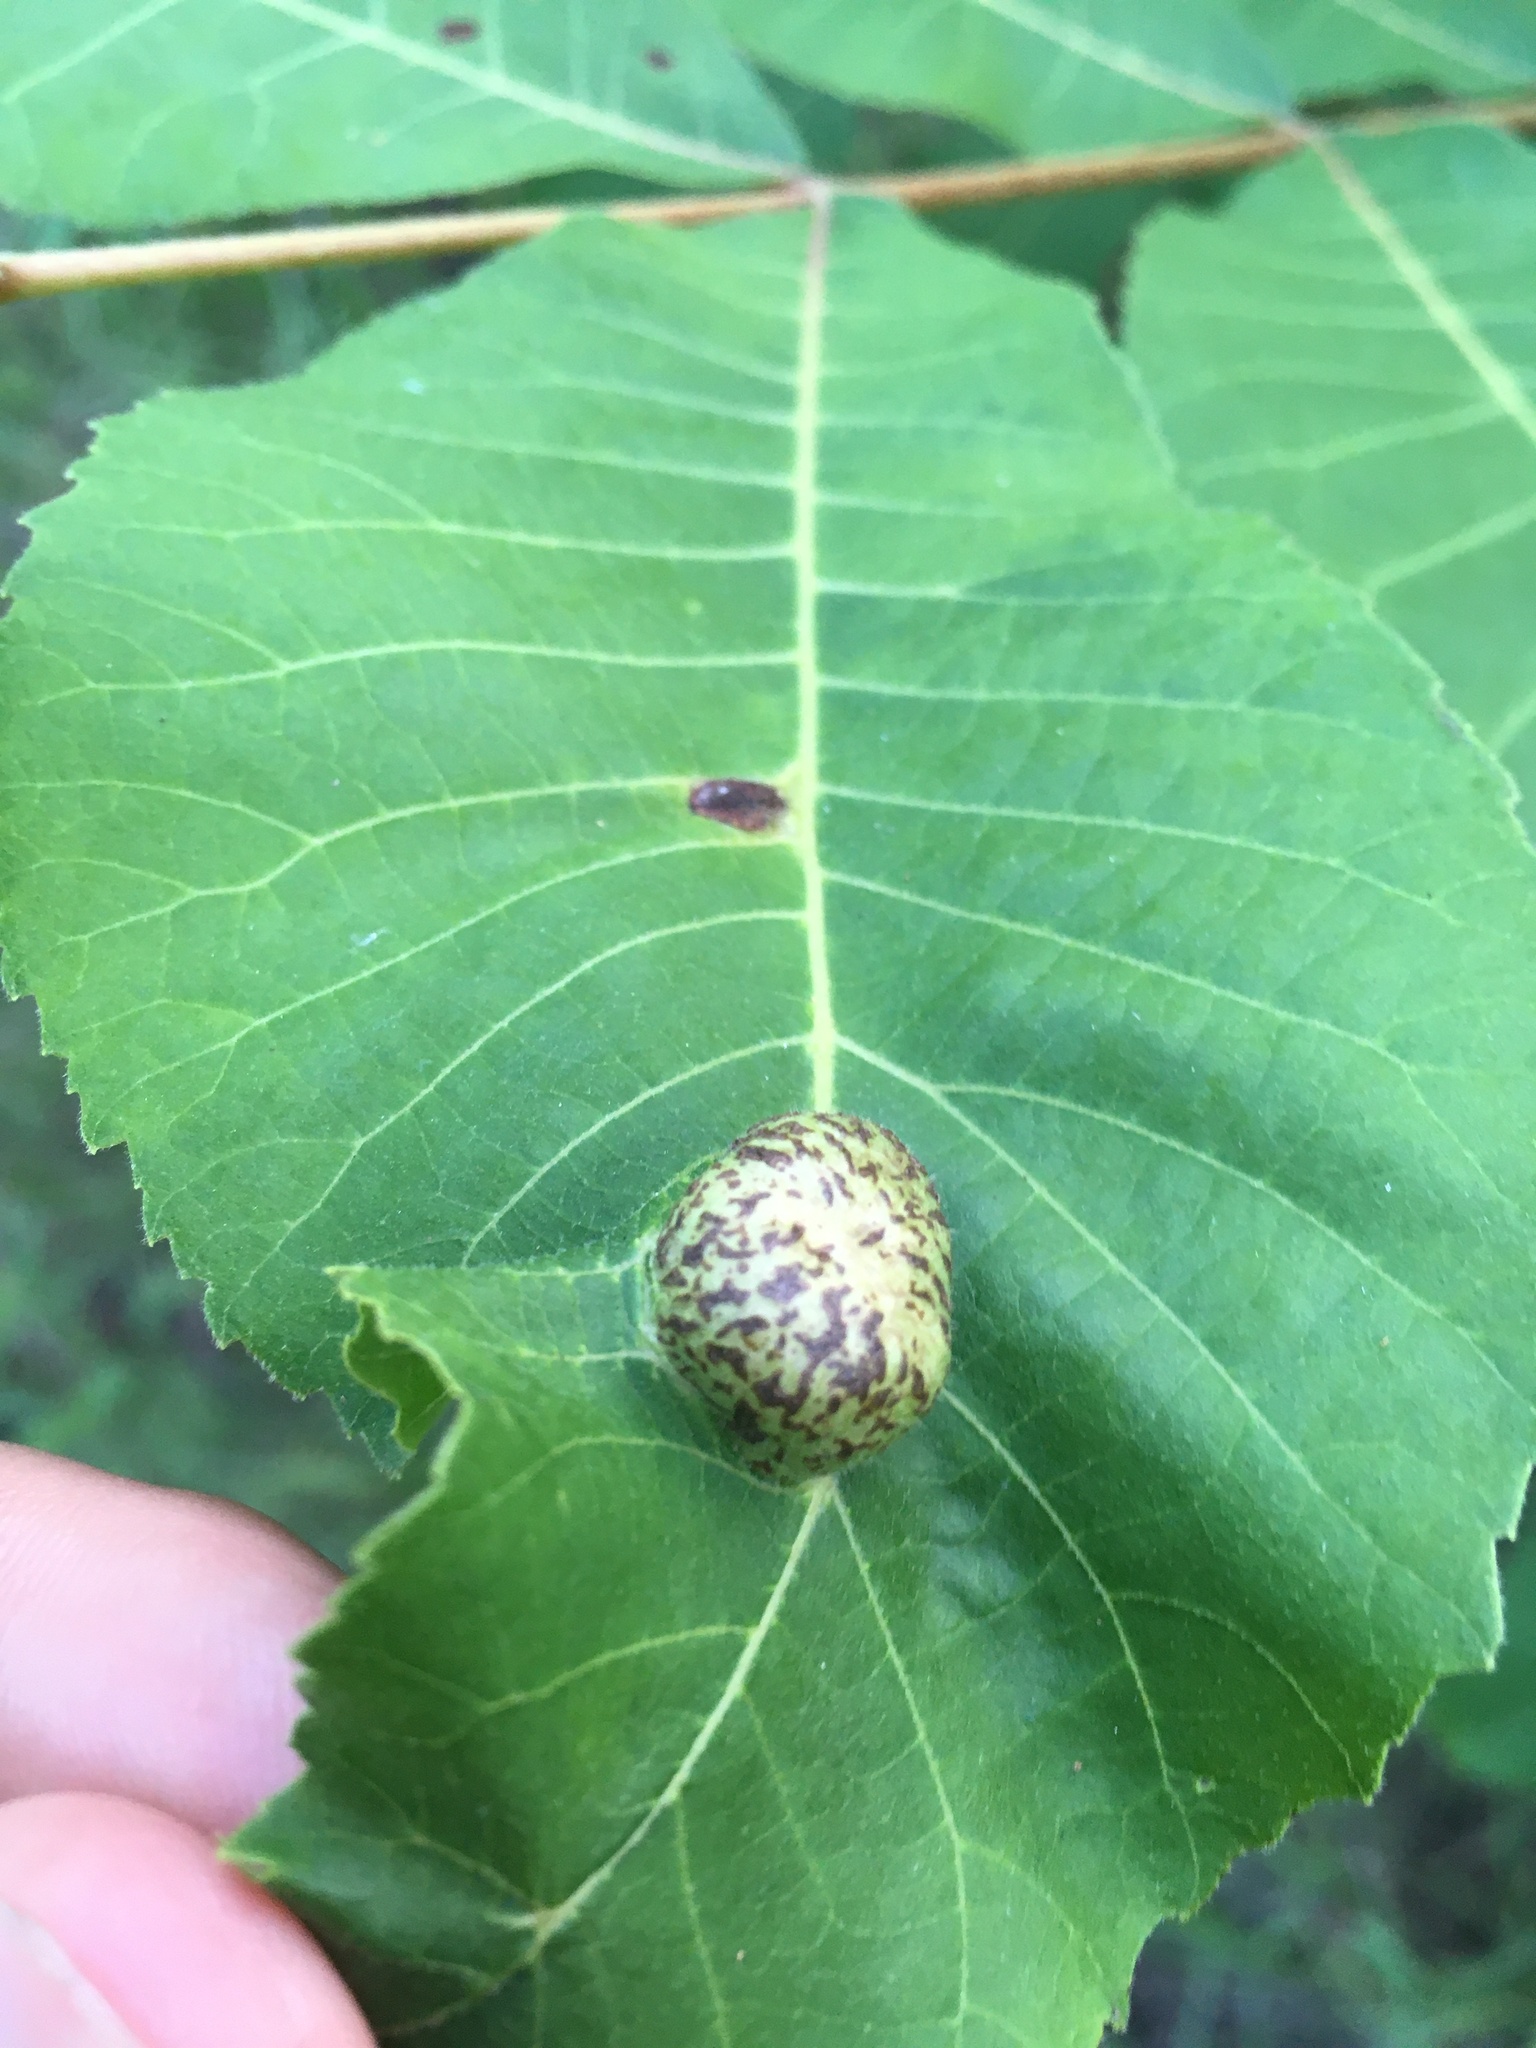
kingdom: Animalia
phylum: Arthropoda
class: Insecta
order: Hemiptera
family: Phylloxeridae
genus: Daktulosphaira
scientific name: Daktulosphaira notabilis
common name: Pecan leaf phylloxera
